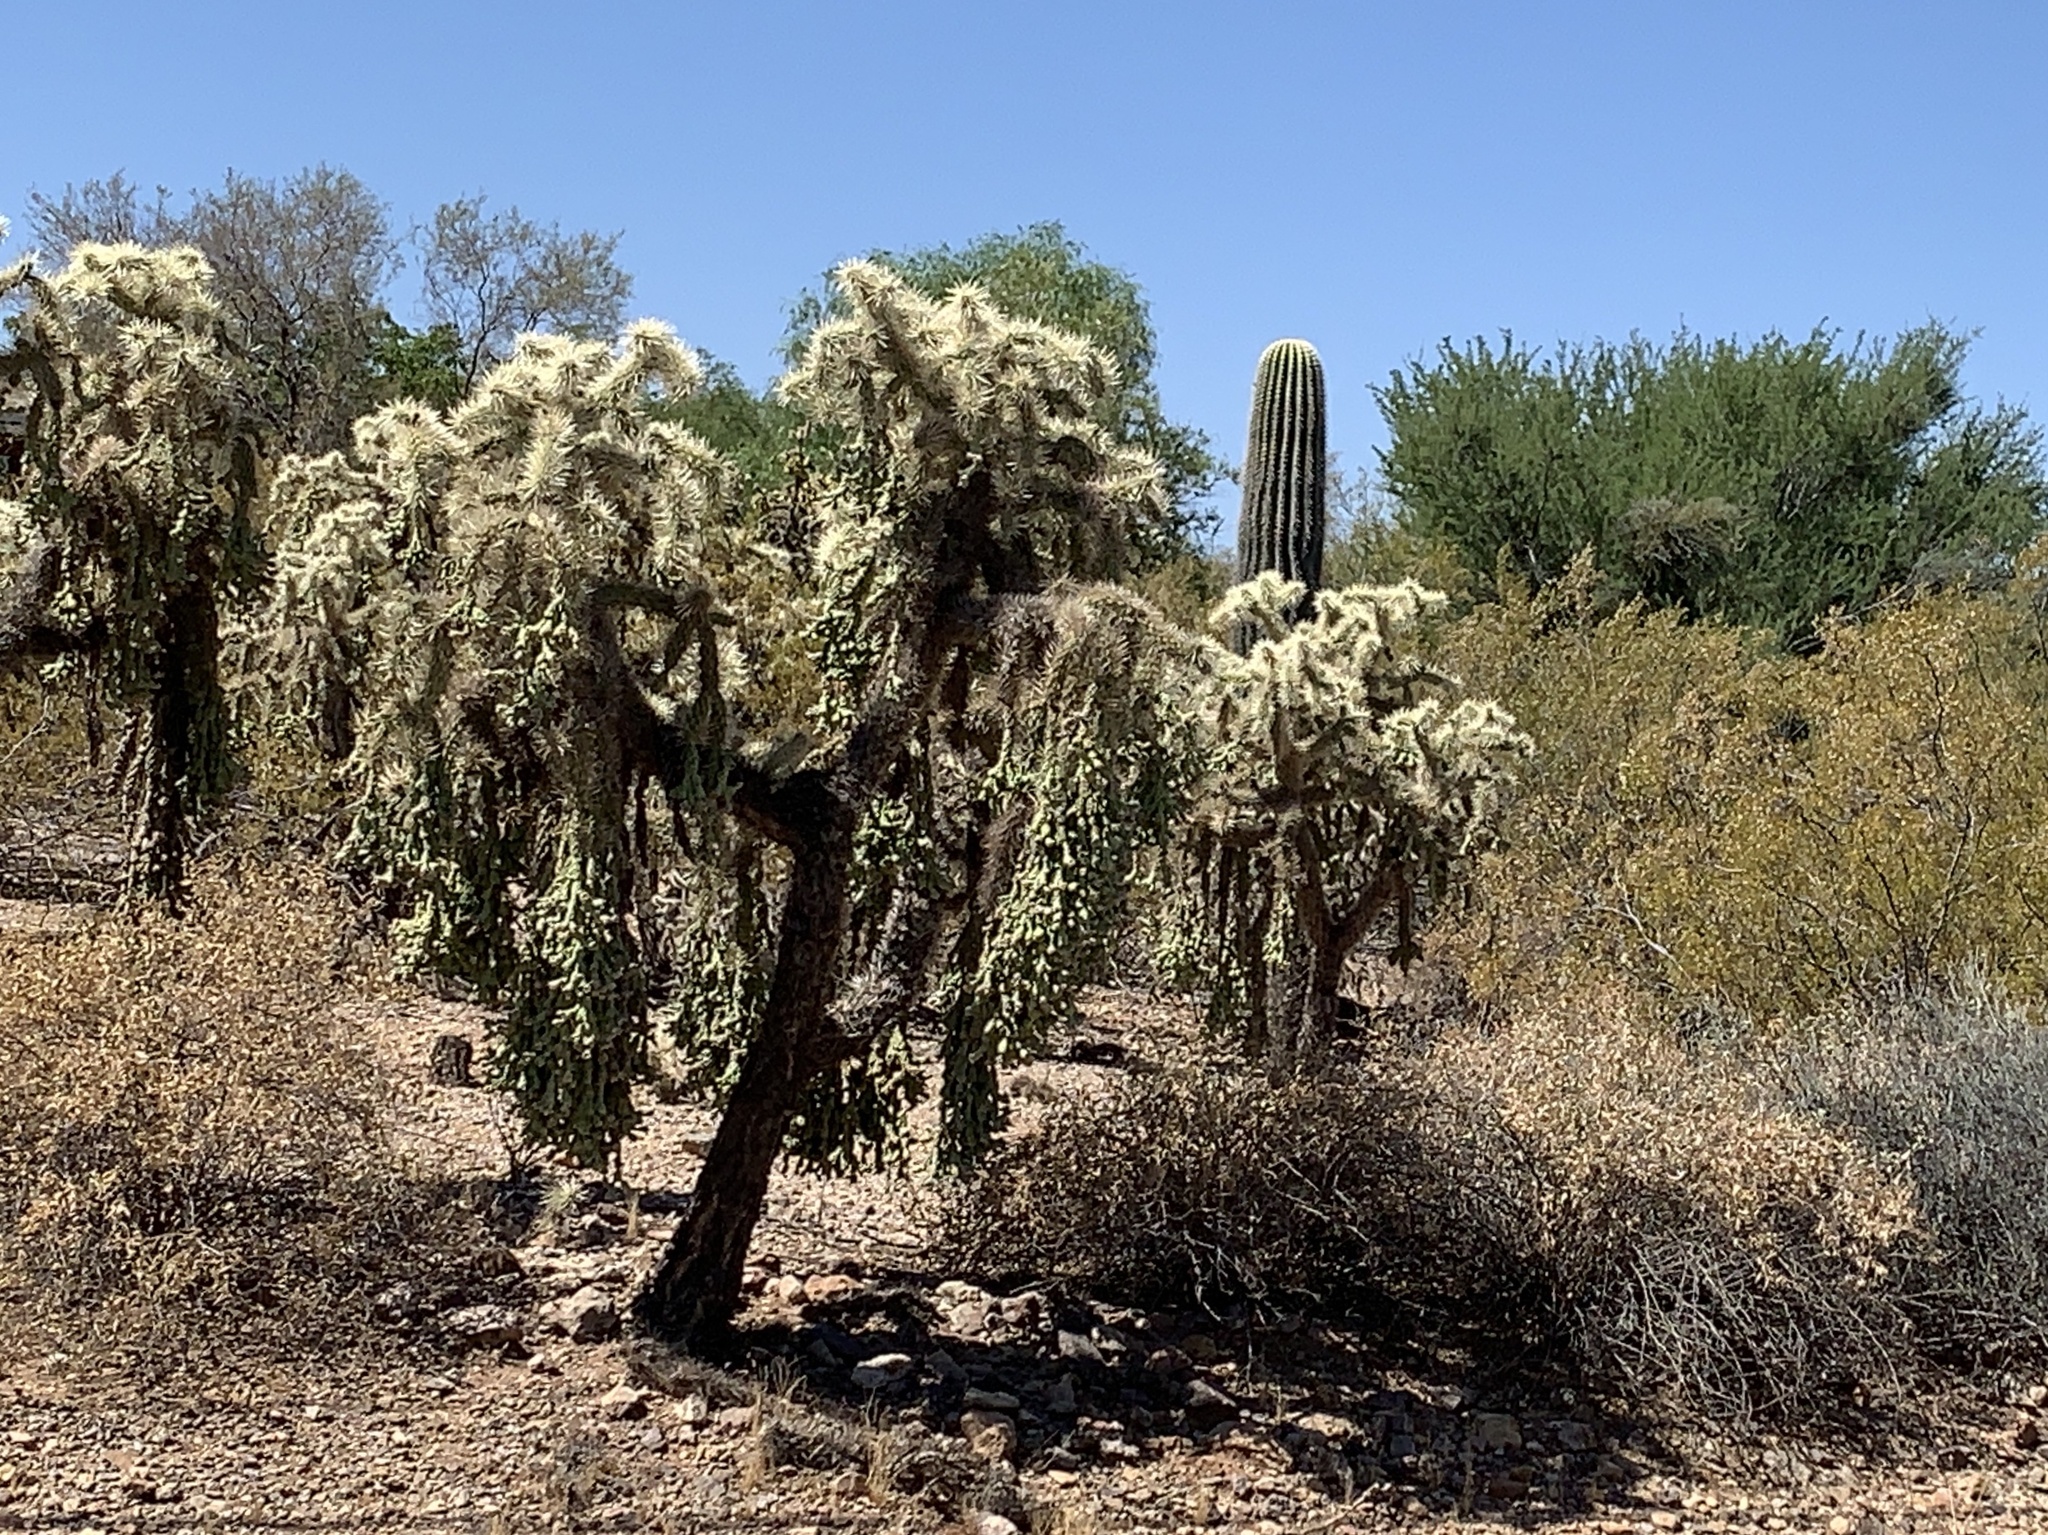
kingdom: Plantae
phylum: Tracheophyta
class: Magnoliopsida
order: Caryophyllales
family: Cactaceae
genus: Cylindropuntia
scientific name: Cylindropuntia fulgida
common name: Jumping cholla
